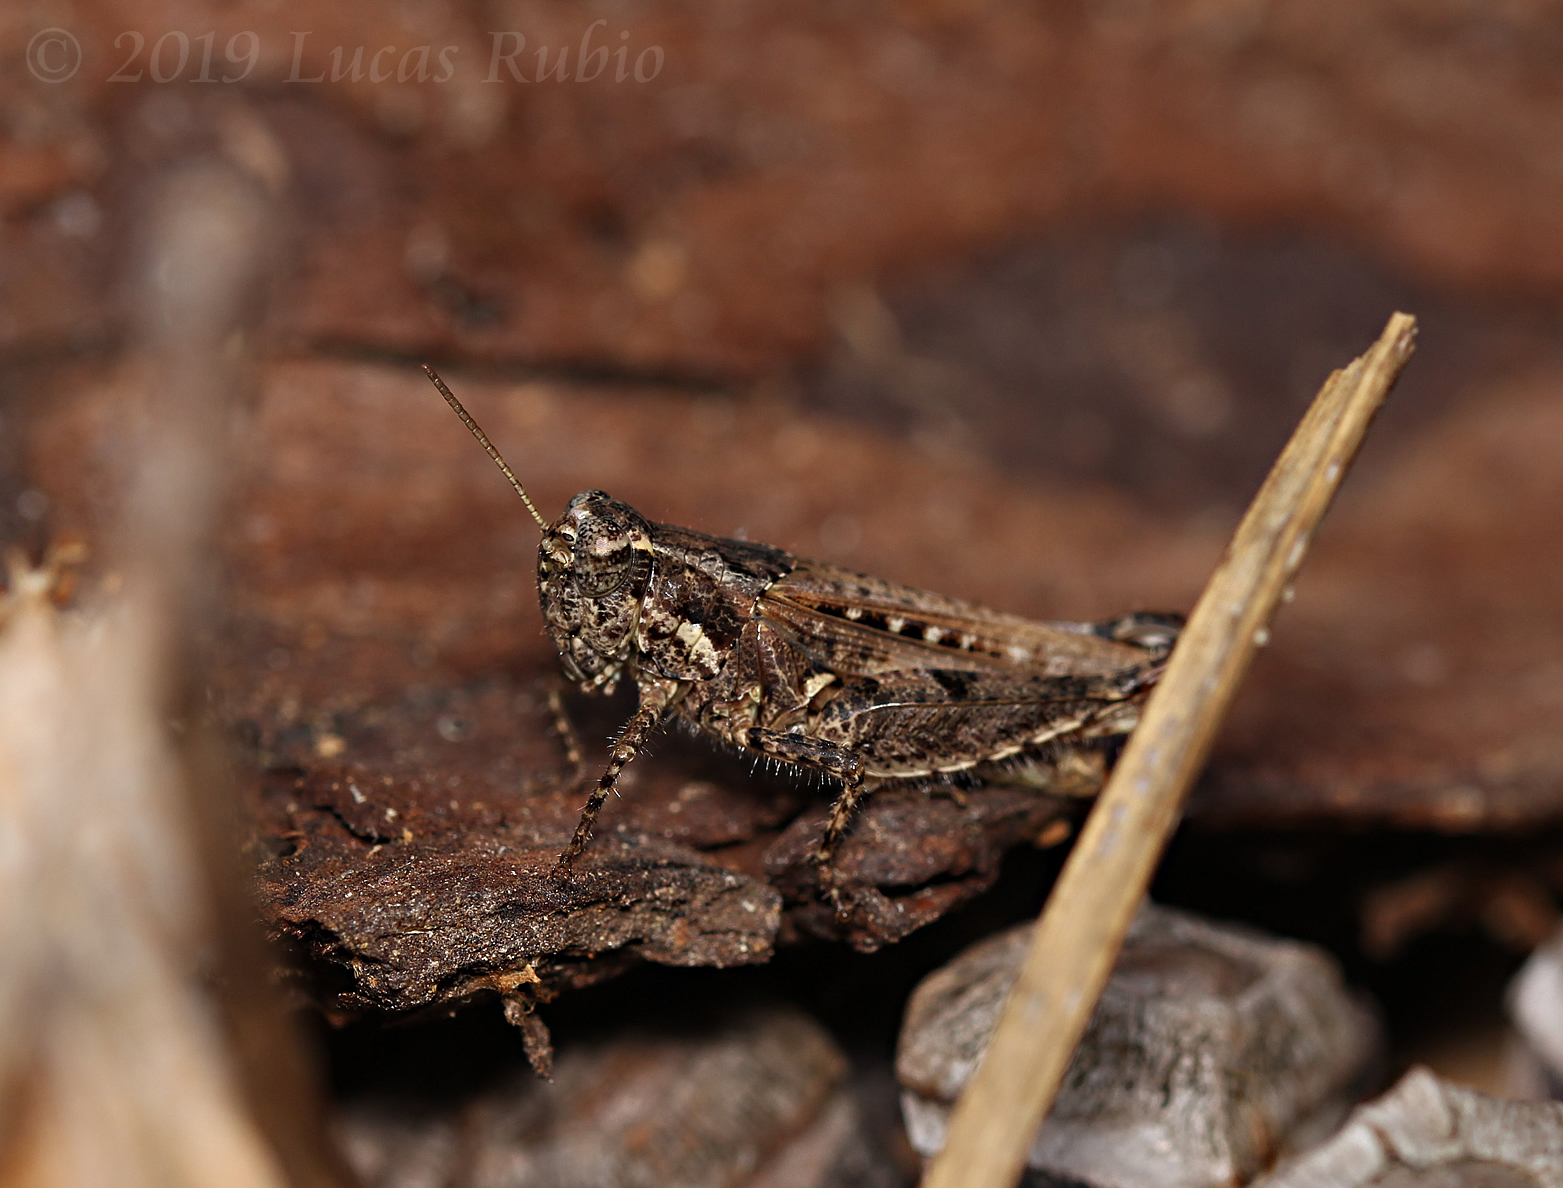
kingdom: Animalia
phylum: Arthropoda
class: Insecta
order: Orthoptera
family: Acrididae
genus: Baeacris
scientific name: Baeacris
